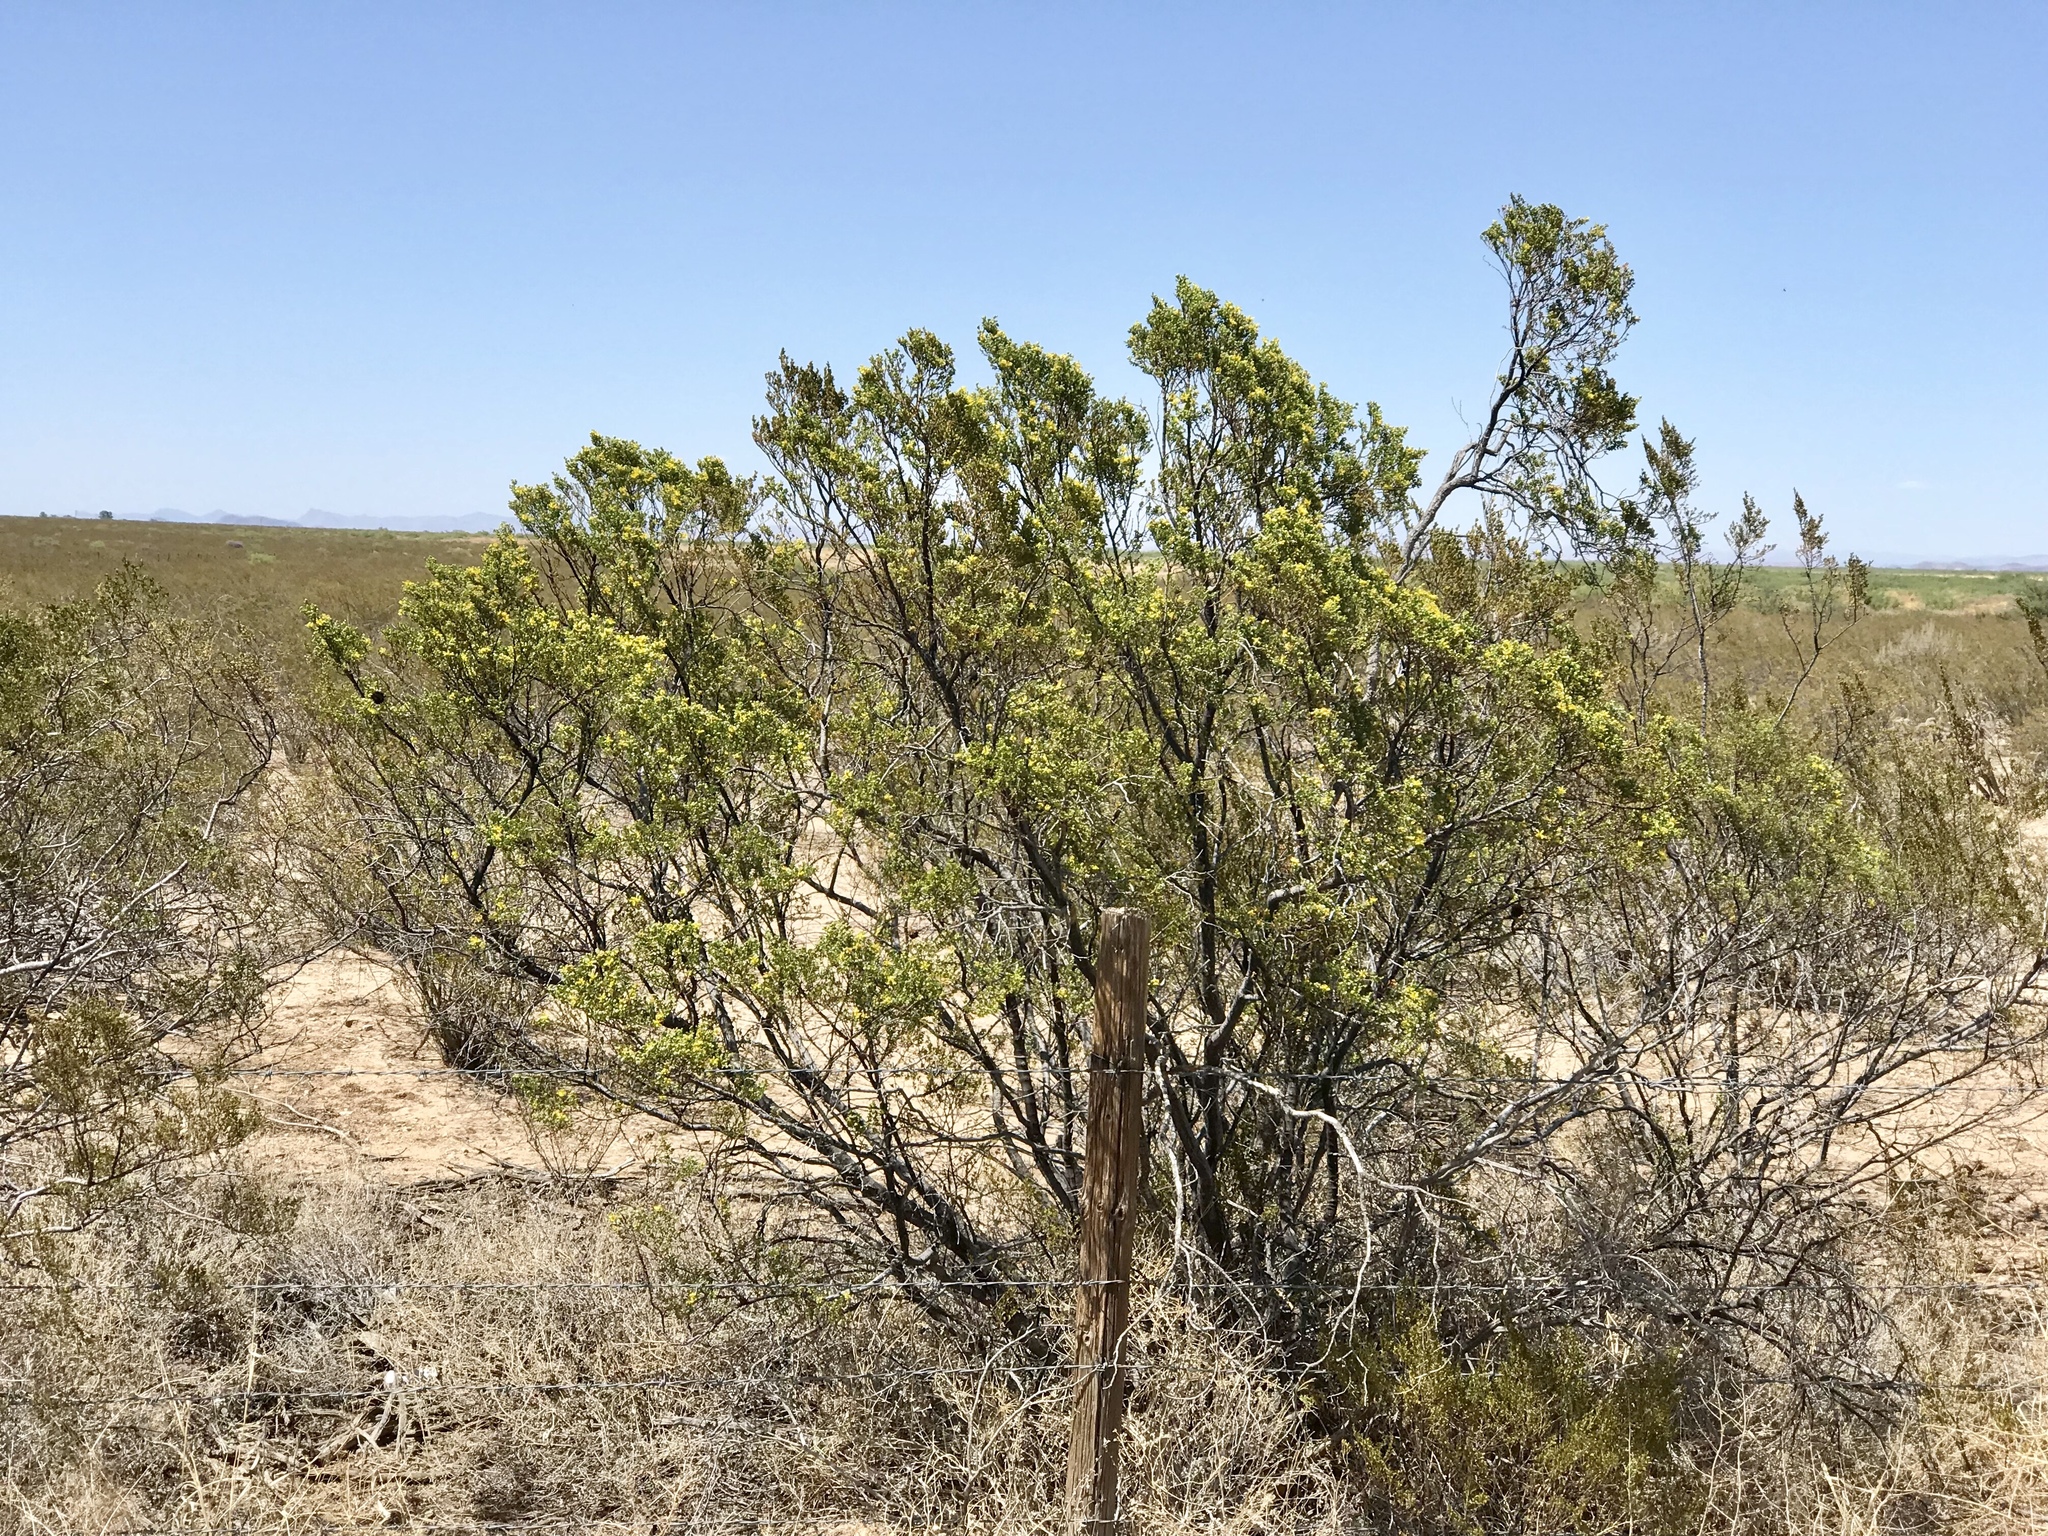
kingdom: Plantae
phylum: Tracheophyta
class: Magnoliopsida
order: Zygophyllales
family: Zygophyllaceae
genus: Larrea
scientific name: Larrea tridentata
